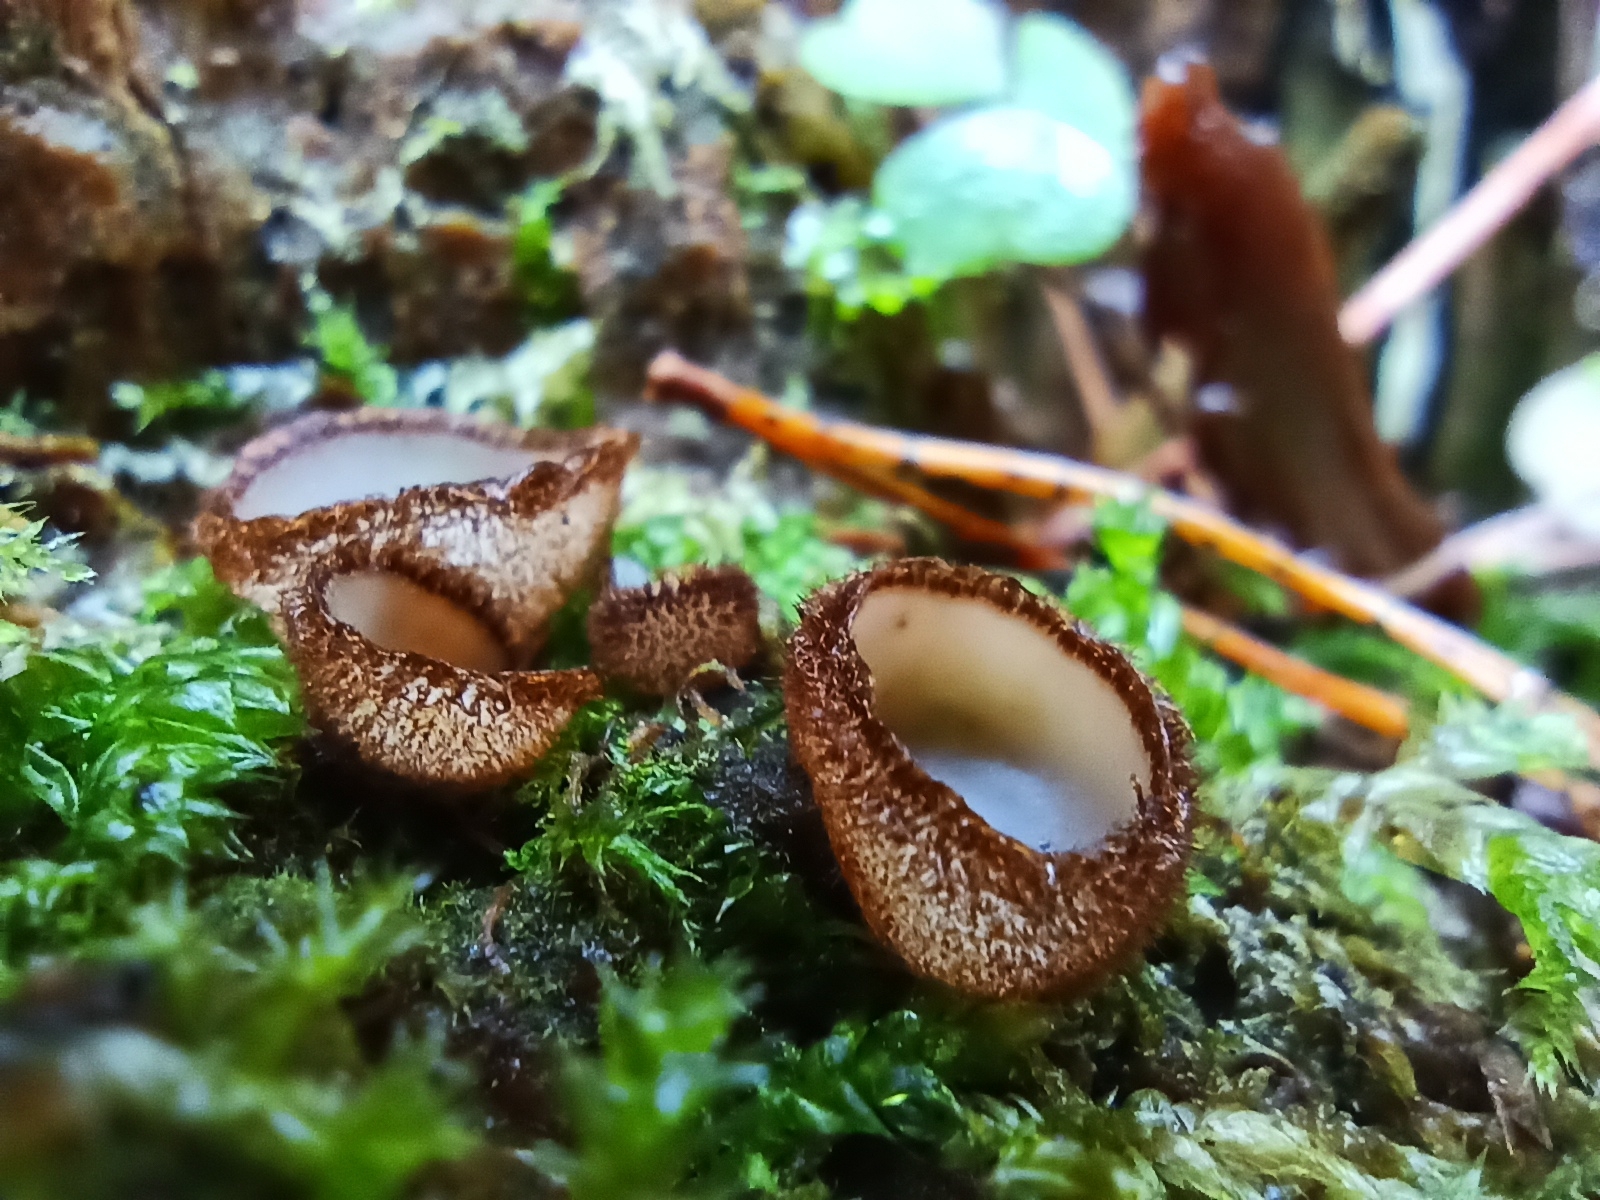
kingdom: Fungi
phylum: Ascomycota
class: Pezizomycetes
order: Pezizales
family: Pyronemataceae
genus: Humaria
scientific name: Humaria hemisphaerica
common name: Glazed cup
